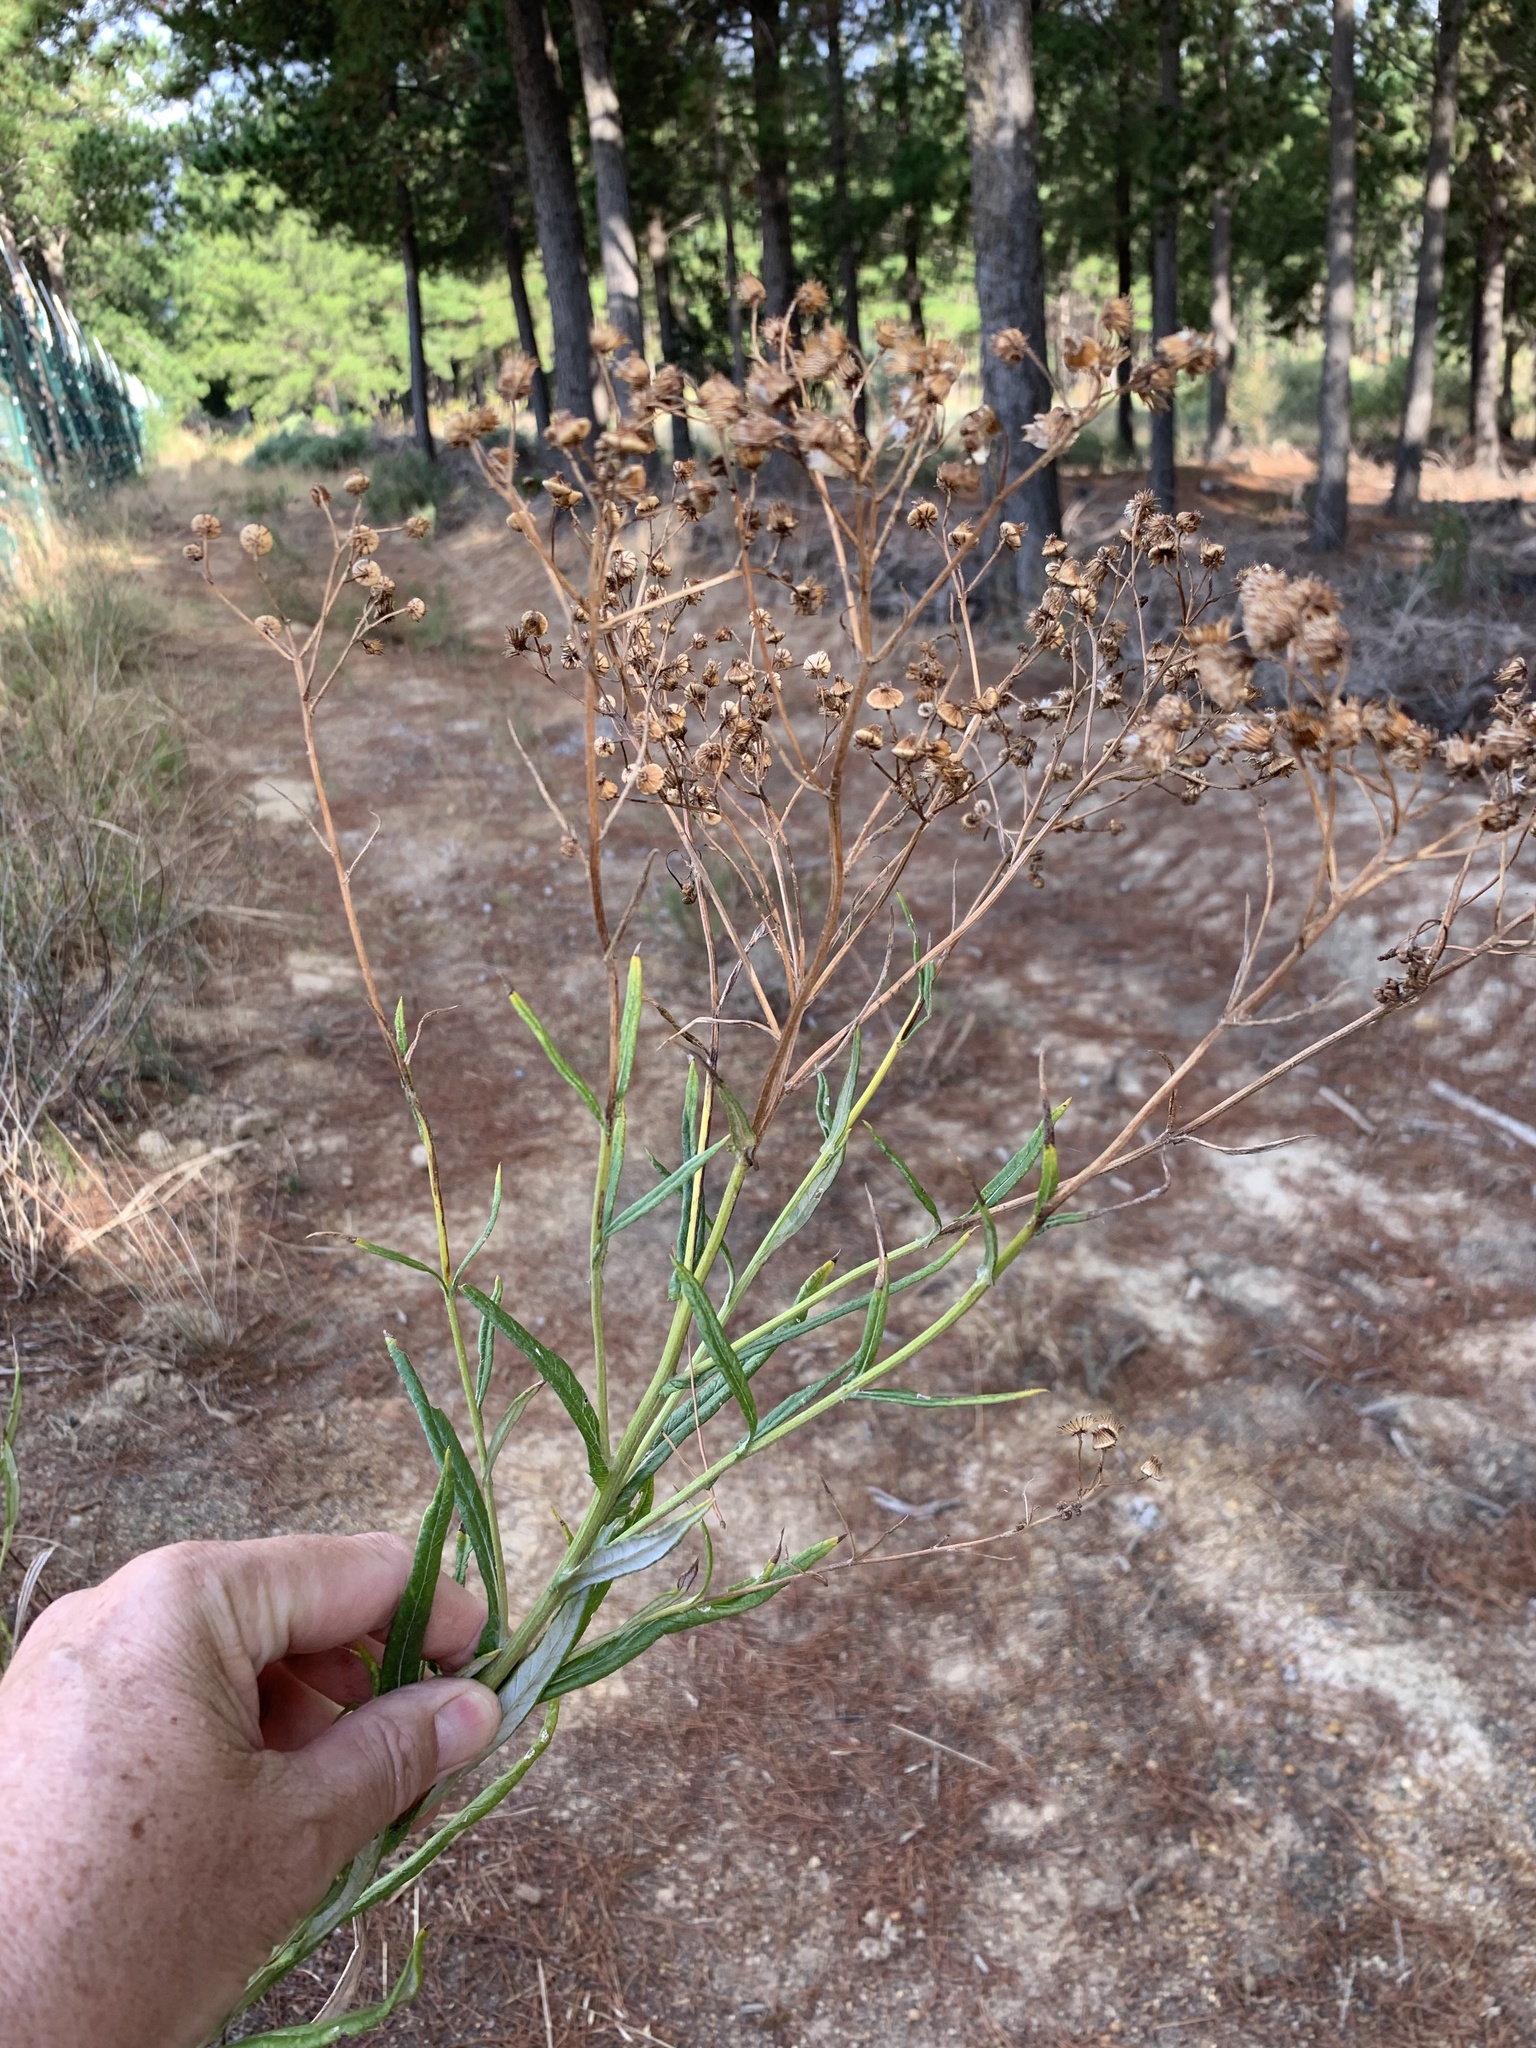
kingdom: Plantae
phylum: Tracheophyta
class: Magnoliopsida
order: Asterales
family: Asteraceae
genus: Senecio
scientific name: Senecio pterophorus
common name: Shoddy ragwort
